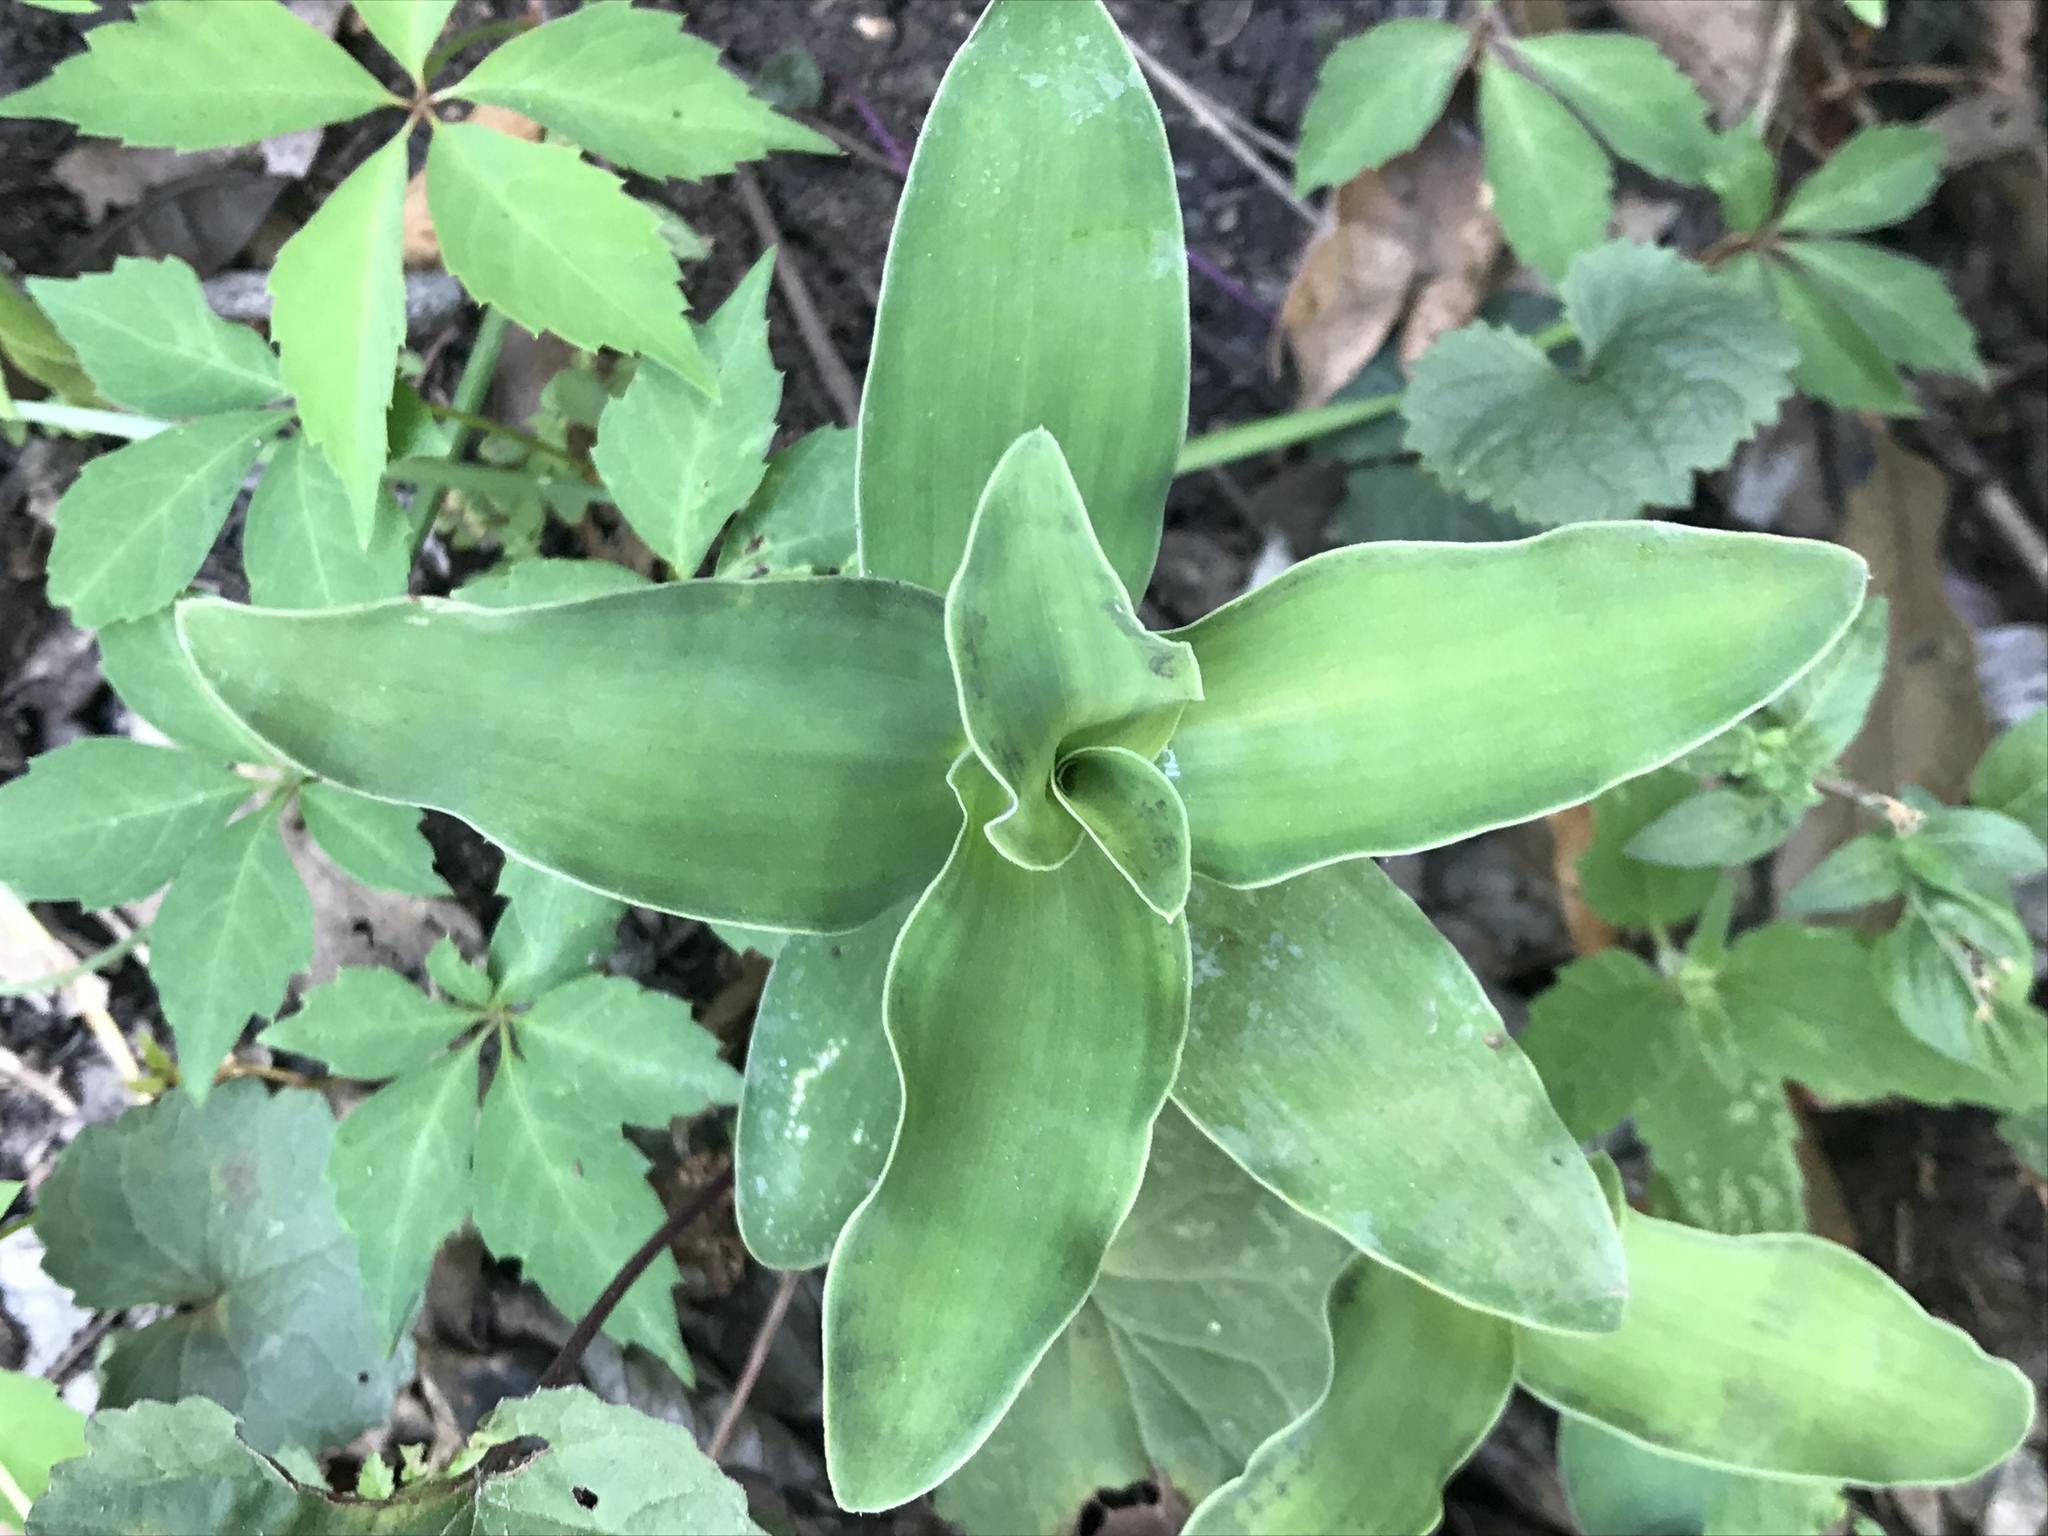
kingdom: Plantae
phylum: Tracheophyta
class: Liliopsida
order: Commelinales
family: Commelinaceae
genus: Tradescantia
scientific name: Tradescantia brevifolia
